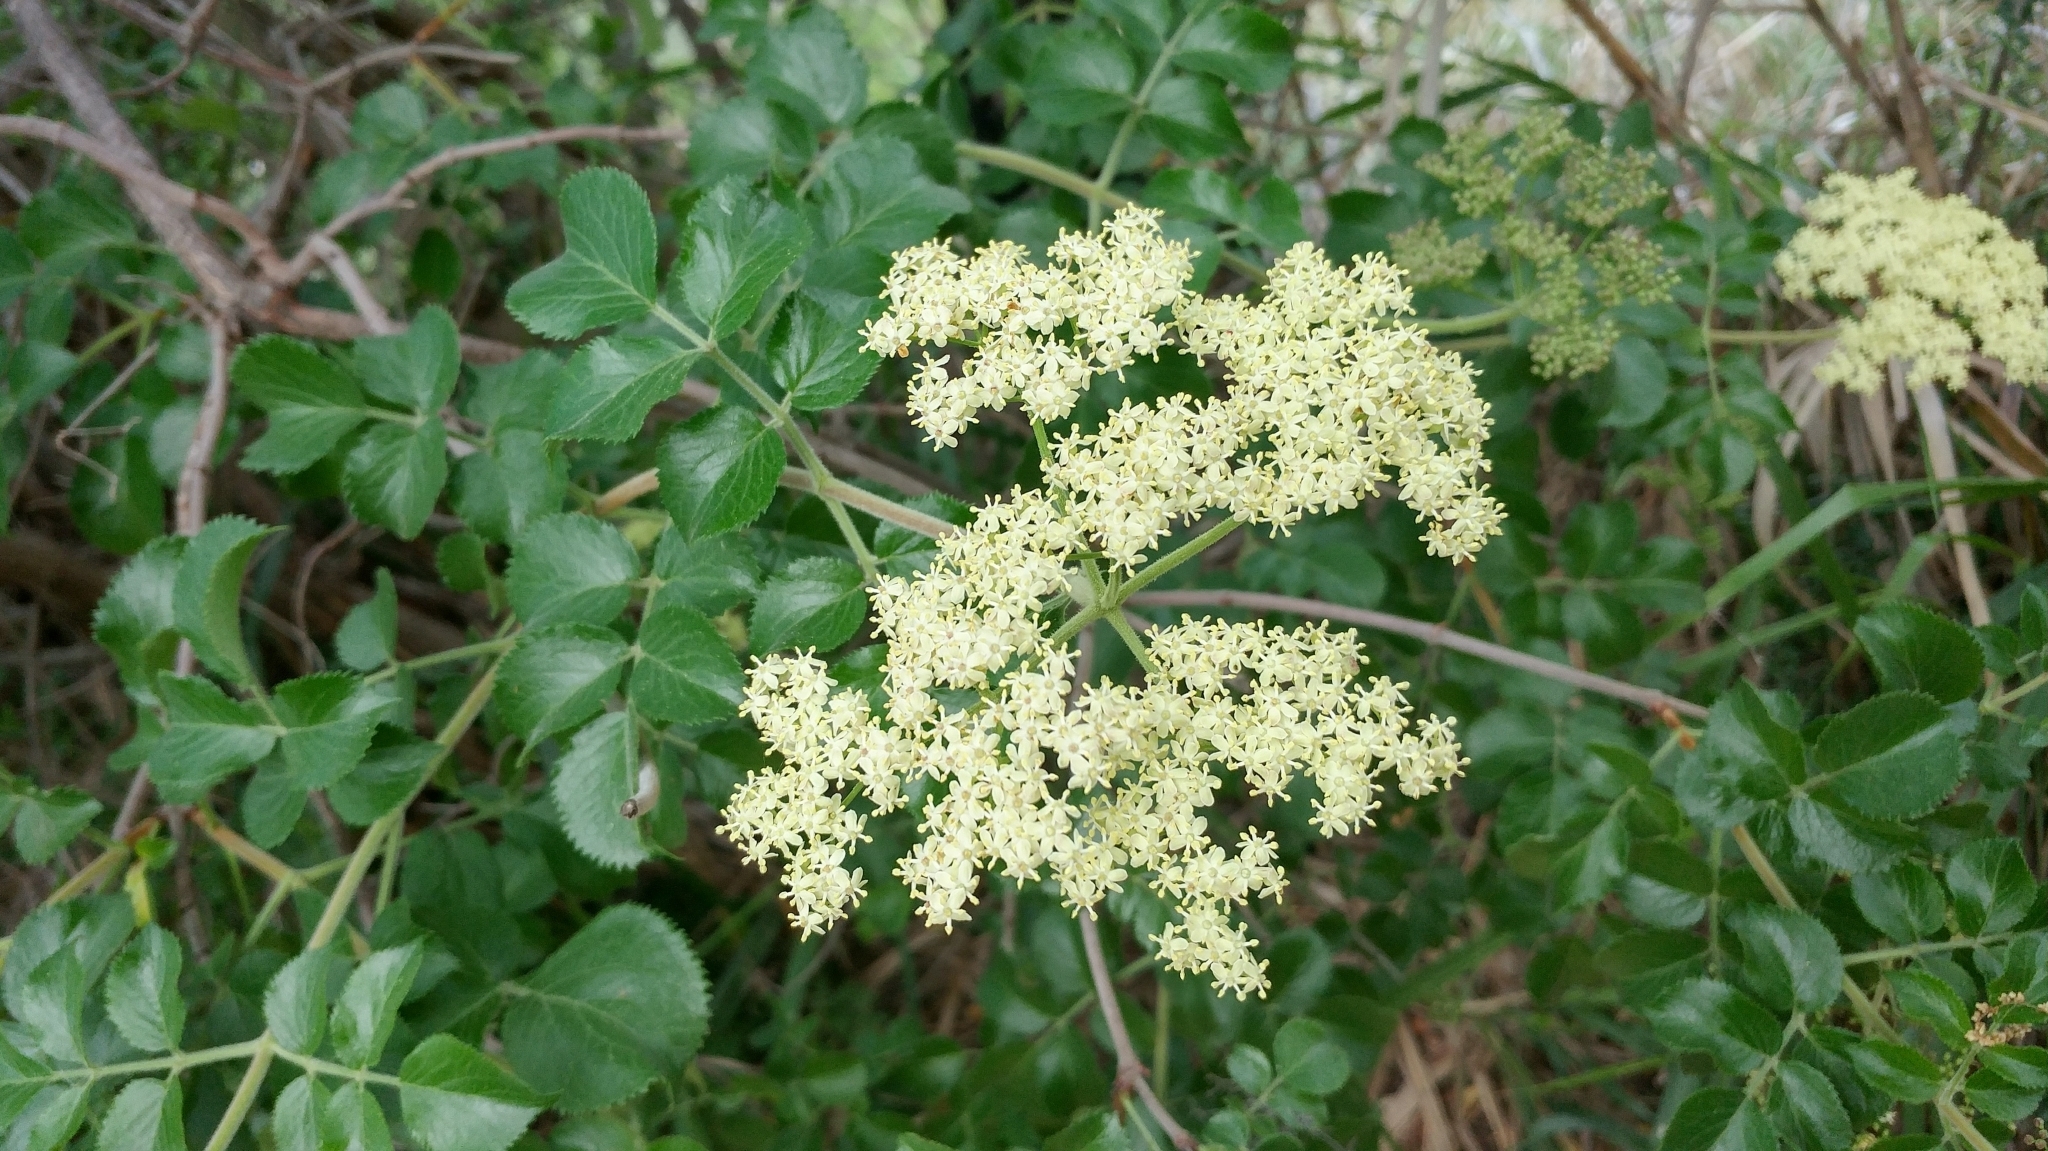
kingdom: Plantae
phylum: Tracheophyta
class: Magnoliopsida
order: Dipsacales
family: Viburnaceae
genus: Sambucus
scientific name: Sambucus cerulea
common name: Blue elder
